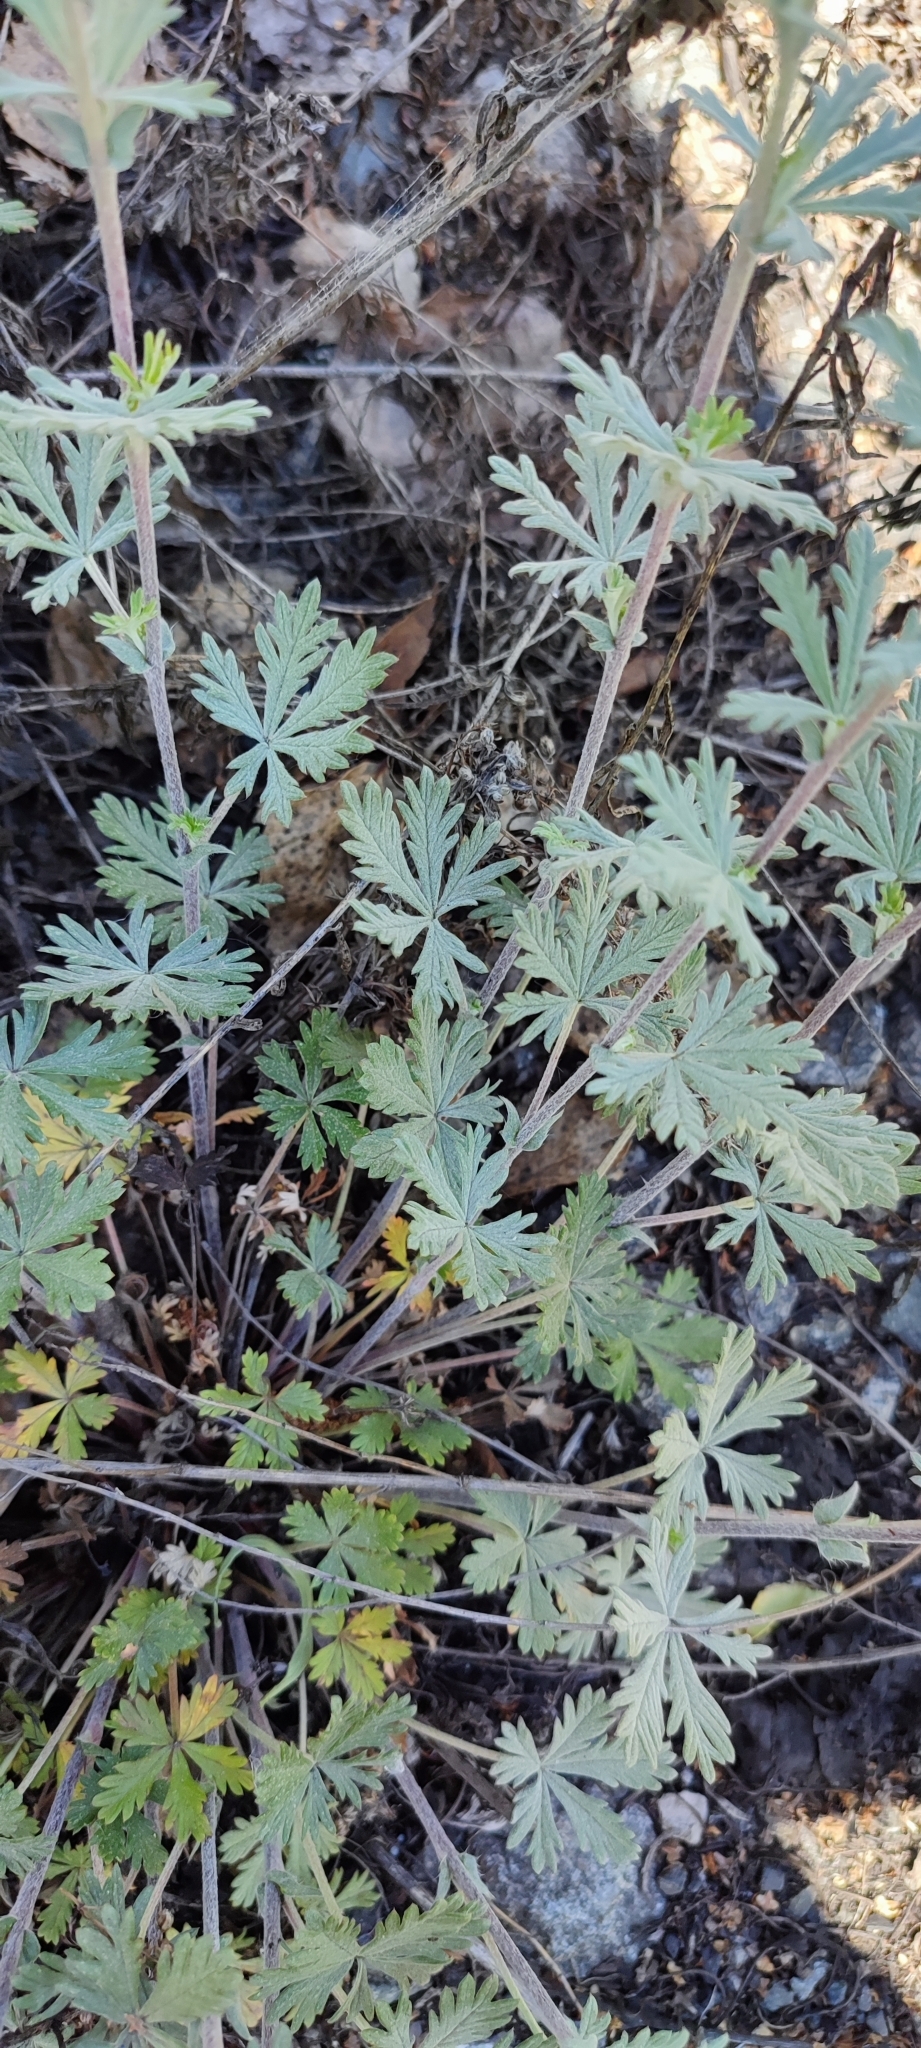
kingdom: Plantae
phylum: Tracheophyta
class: Magnoliopsida
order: Rosales
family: Rosaceae
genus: Potentilla
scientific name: Potentilla argentea
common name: Hoary cinquefoil
